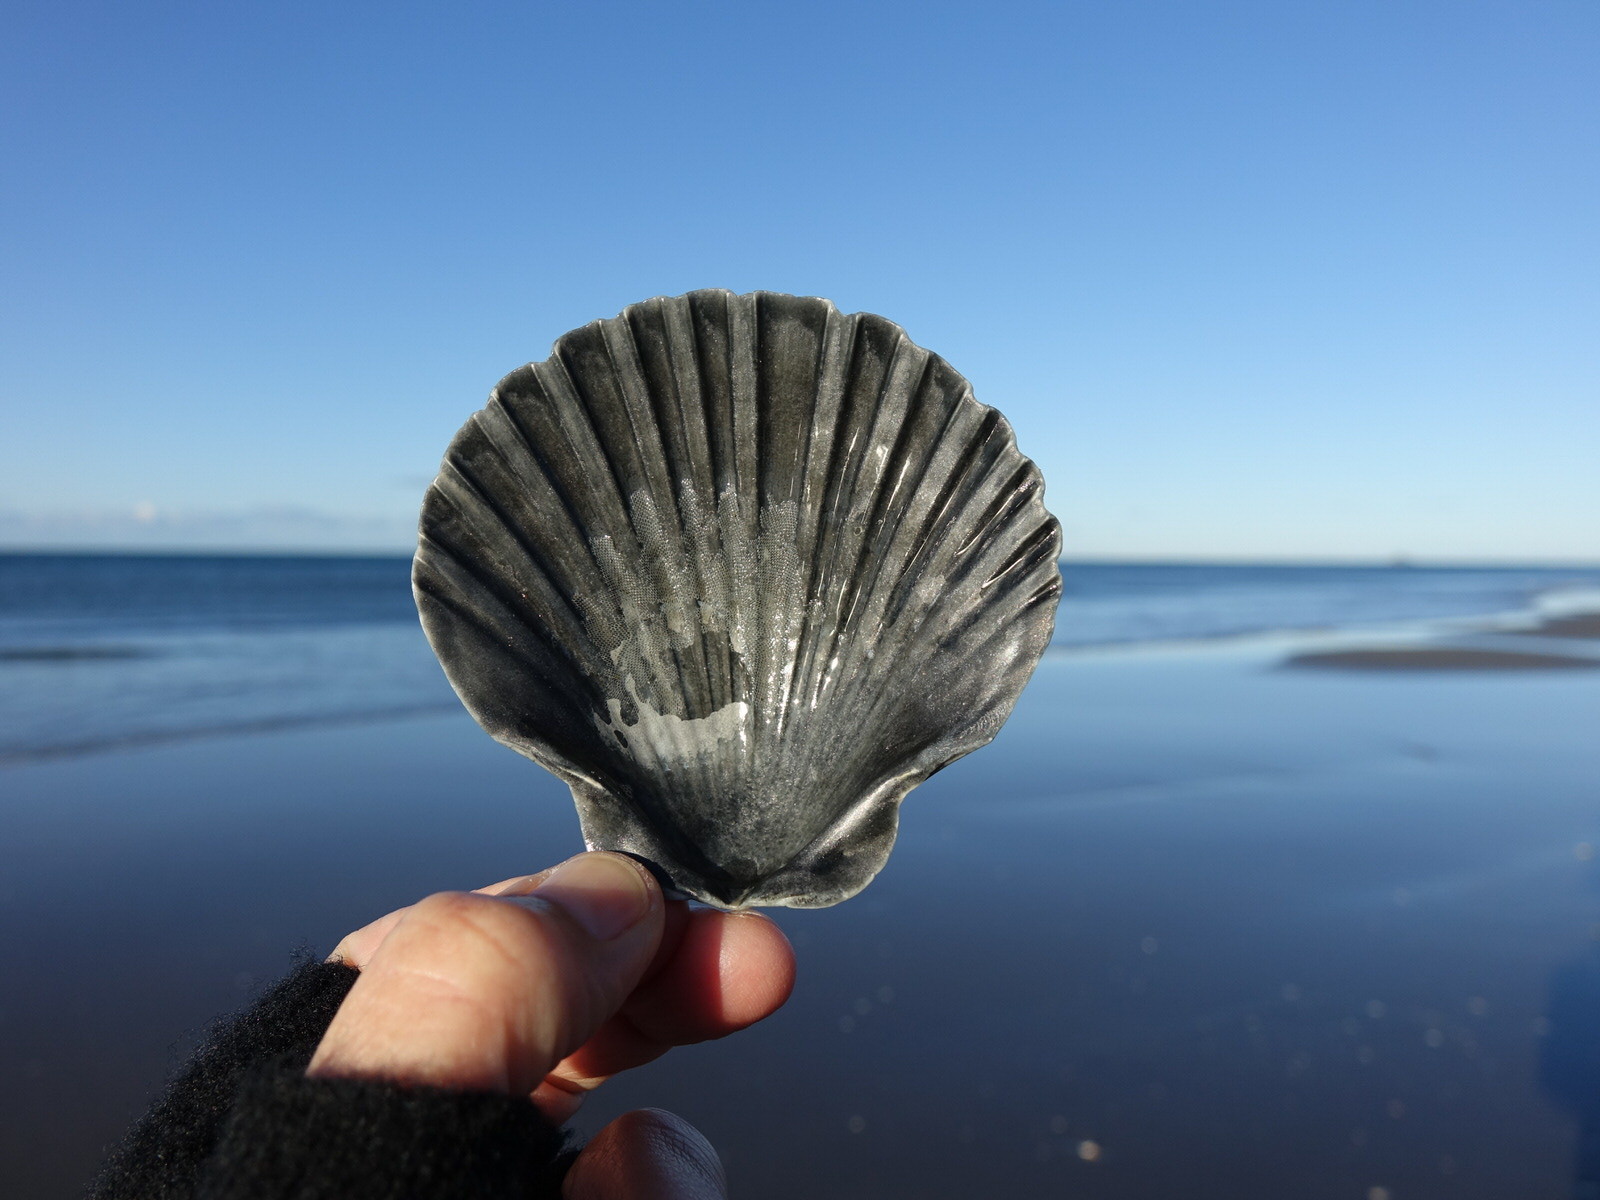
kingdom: Animalia
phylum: Mollusca
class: Bivalvia
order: Pectinida
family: Pectinidae
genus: Pecten
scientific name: Pecten novaezelandiae
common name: New zealand scallop
